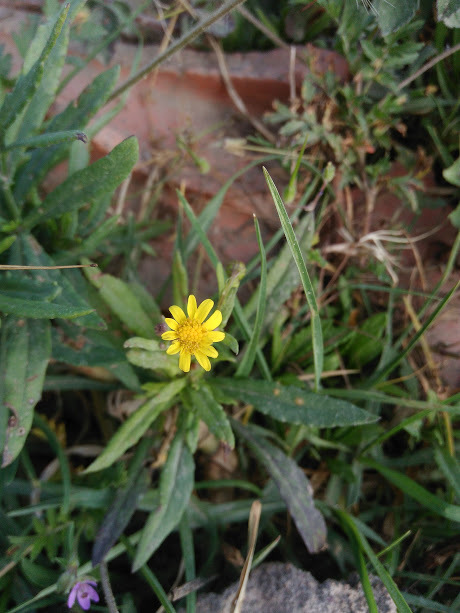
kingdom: Plantae
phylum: Tracheophyta
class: Magnoliopsida
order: Asterales
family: Asteraceae
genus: Senecio
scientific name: Senecio madagascariensis
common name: Madagascar ragwort
